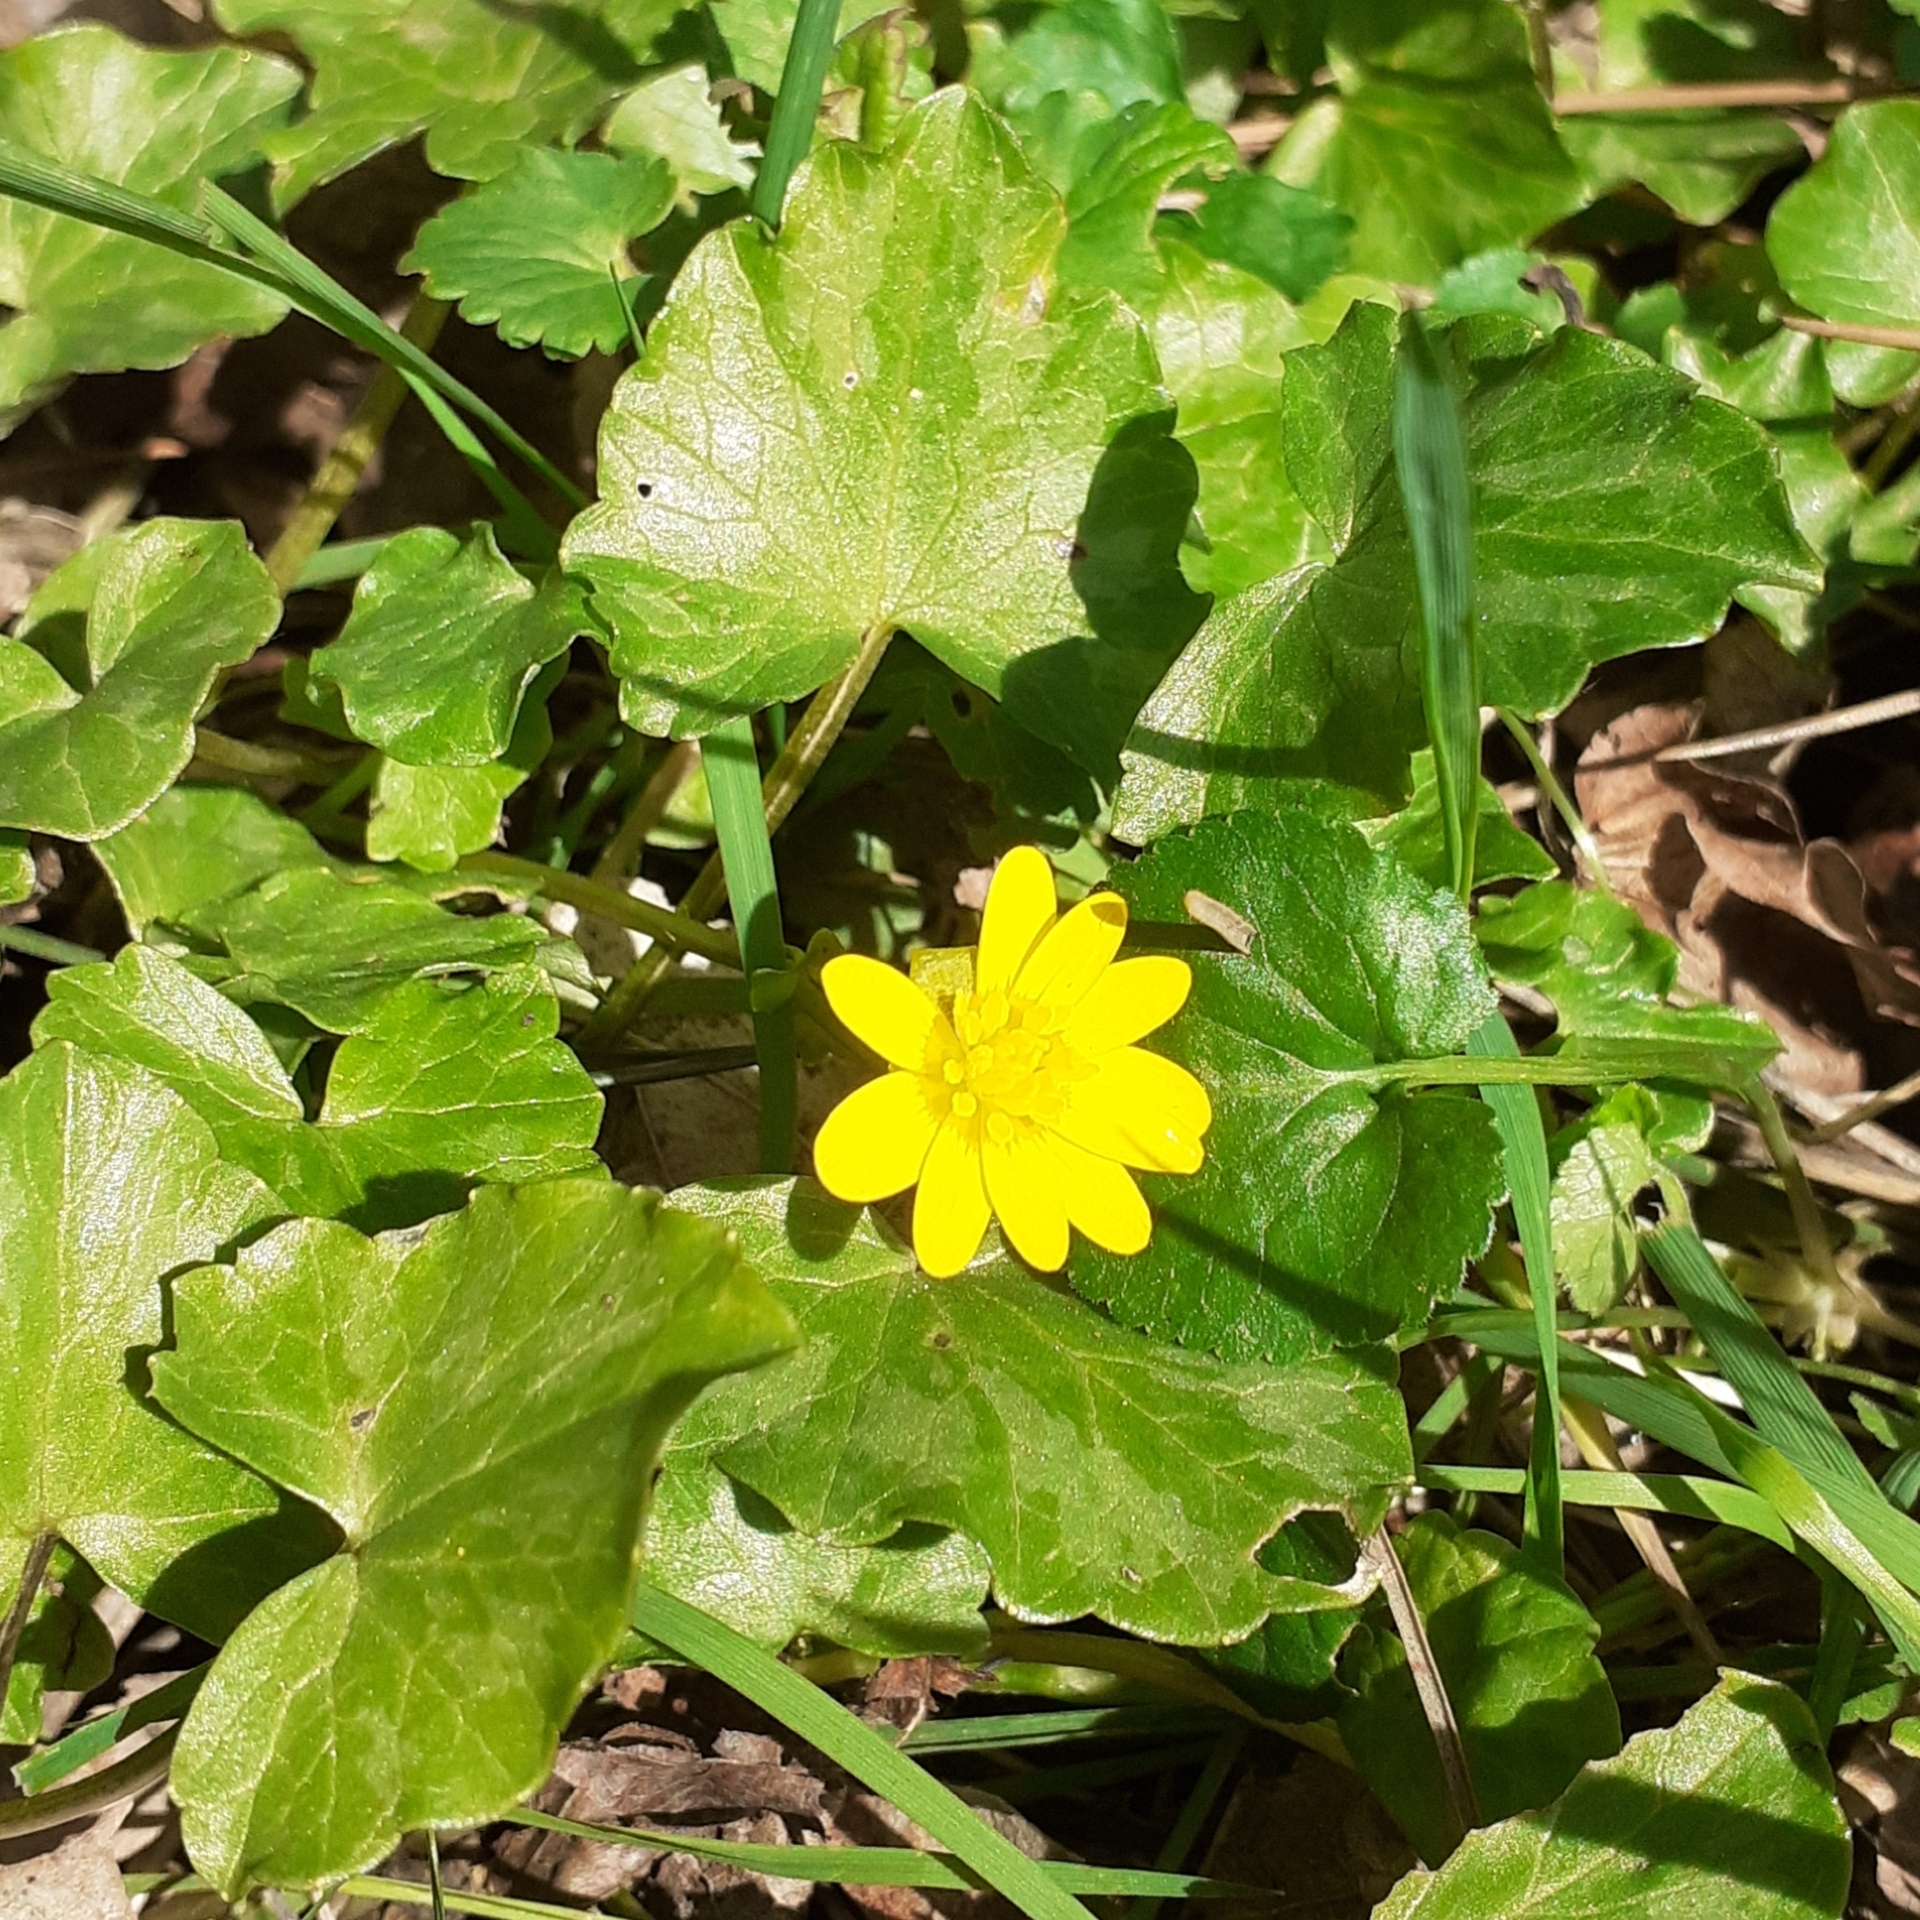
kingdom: Plantae
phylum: Tracheophyta
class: Magnoliopsida
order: Ranunculales
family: Ranunculaceae
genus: Ficaria
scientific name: Ficaria verna
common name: Lesser celandine
